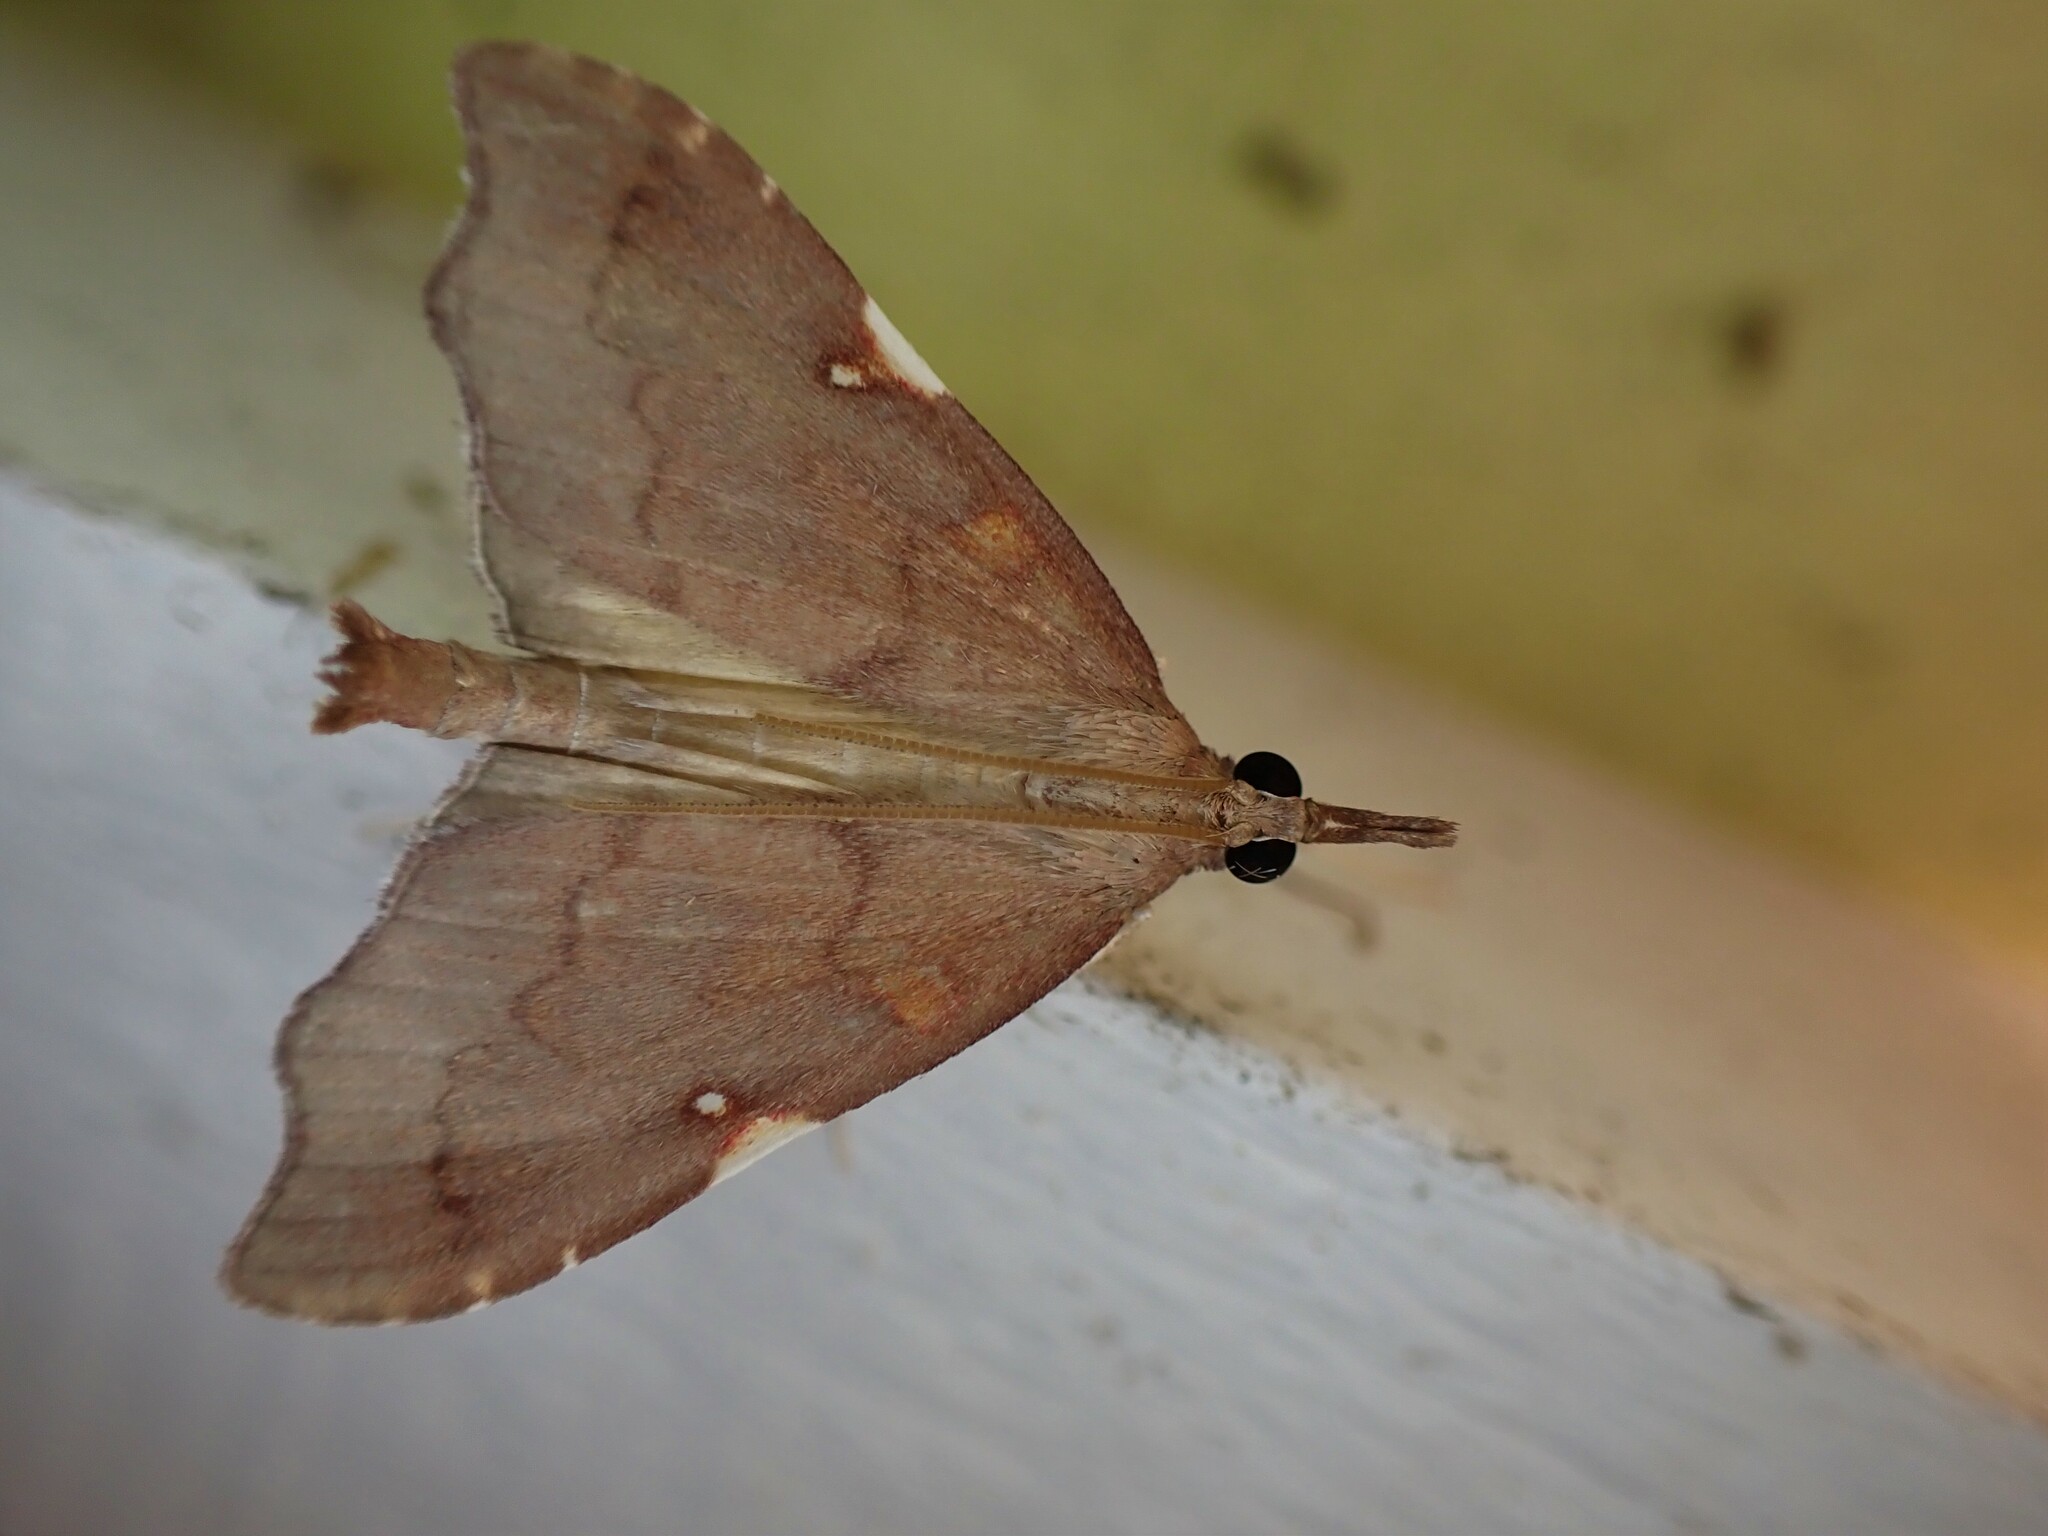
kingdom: Animalia
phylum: Arthropoda
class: Insecta
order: Lepidoptera
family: Crambidae
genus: Deana
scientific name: Deana hybreasalis
